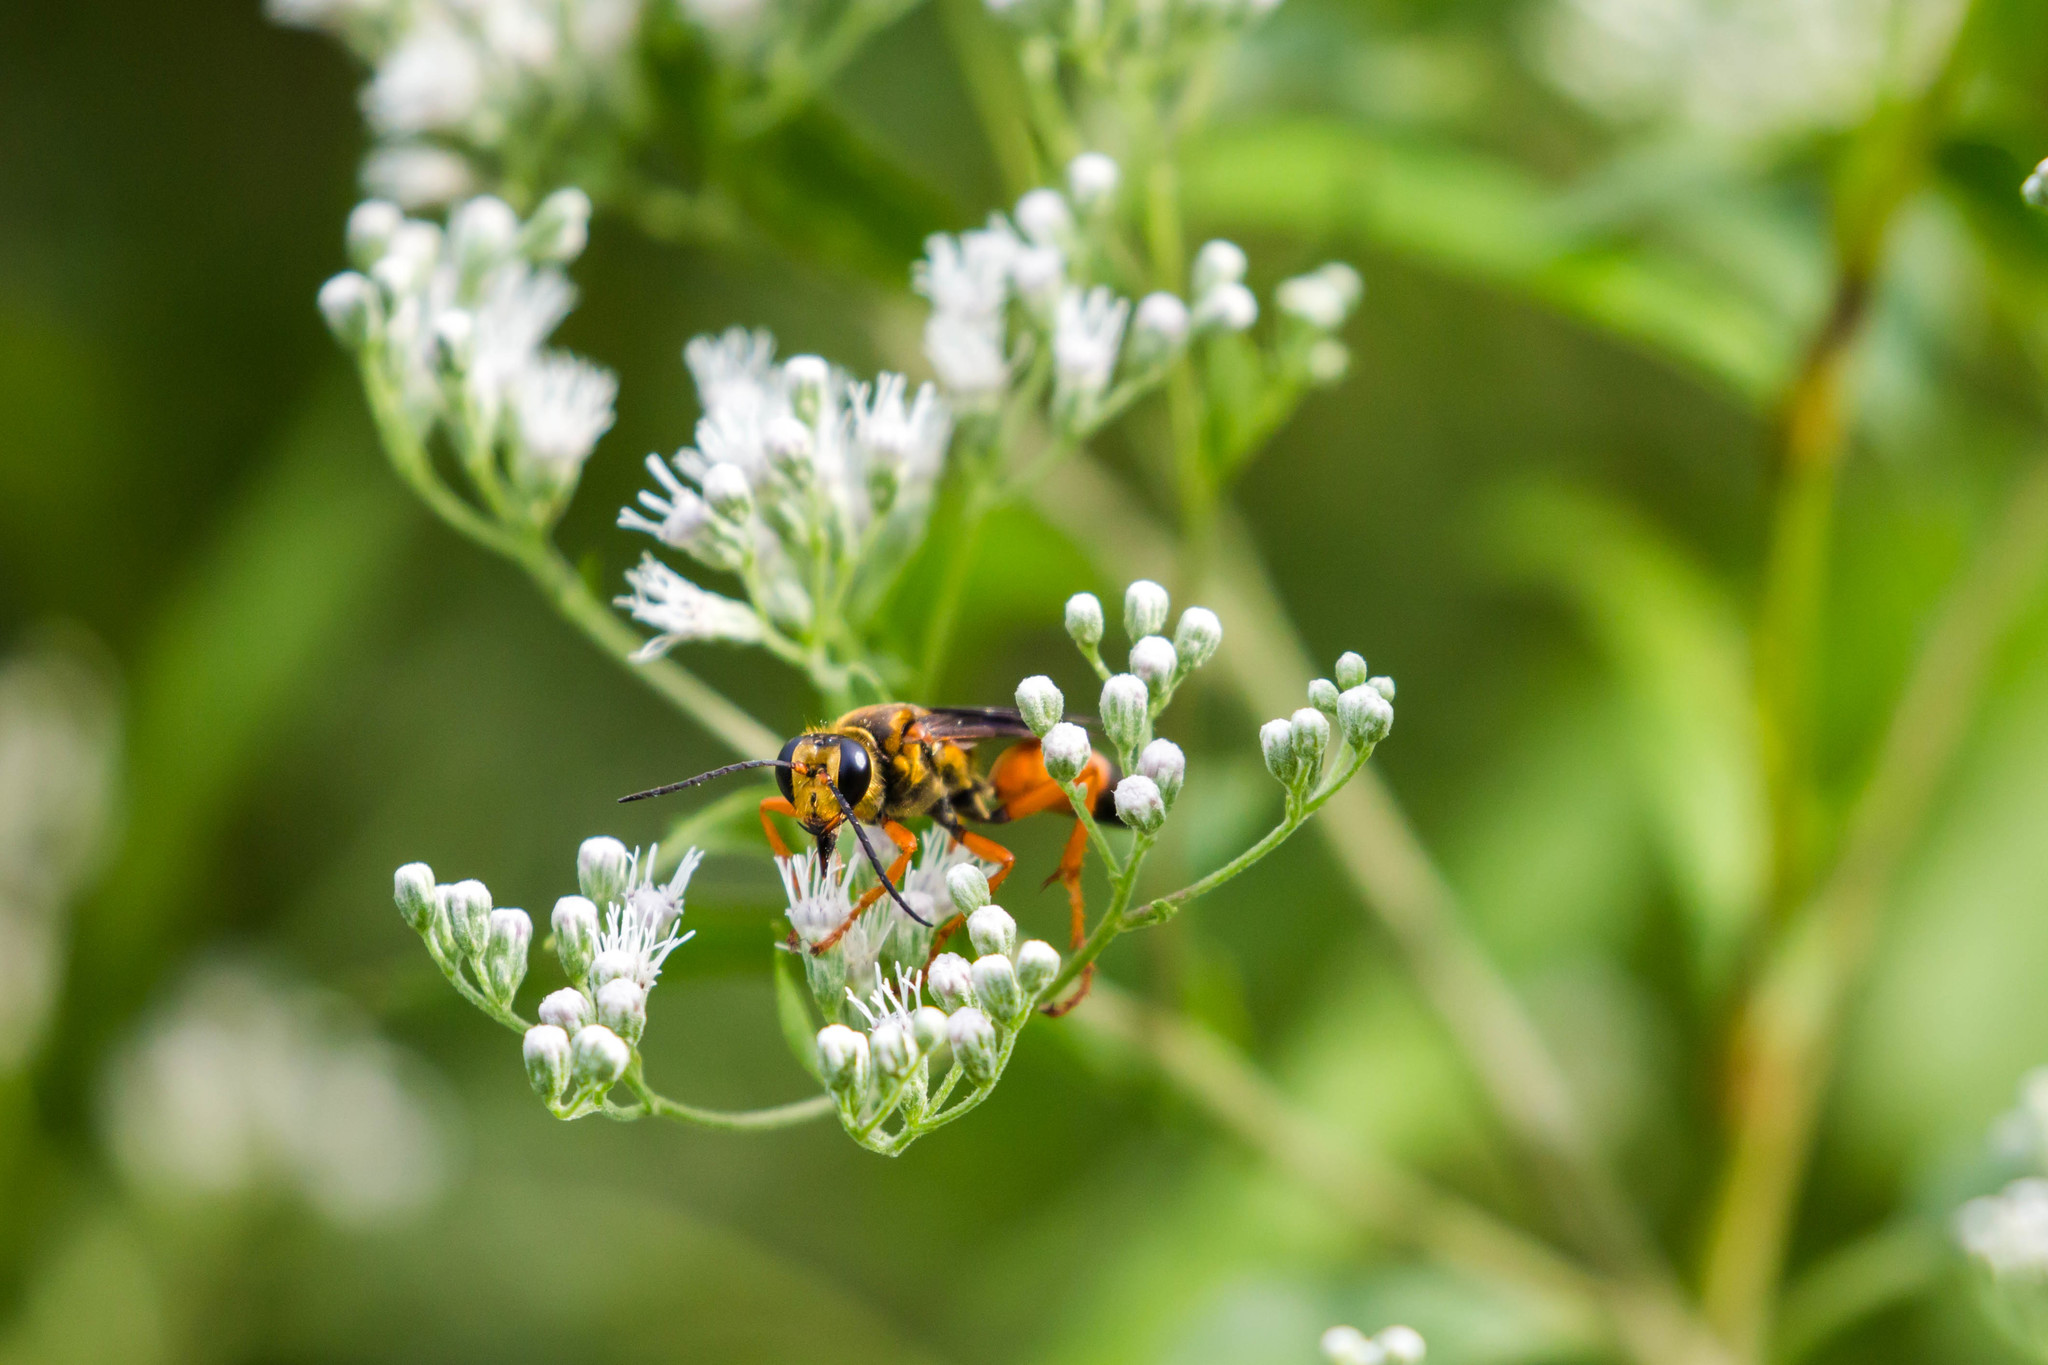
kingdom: Animalia
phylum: Arthropoda
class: Insecta
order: Hymenoptera
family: Sphecidae
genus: Sphex
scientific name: Sphex ichneumoneus
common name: Great golden digger wasp
